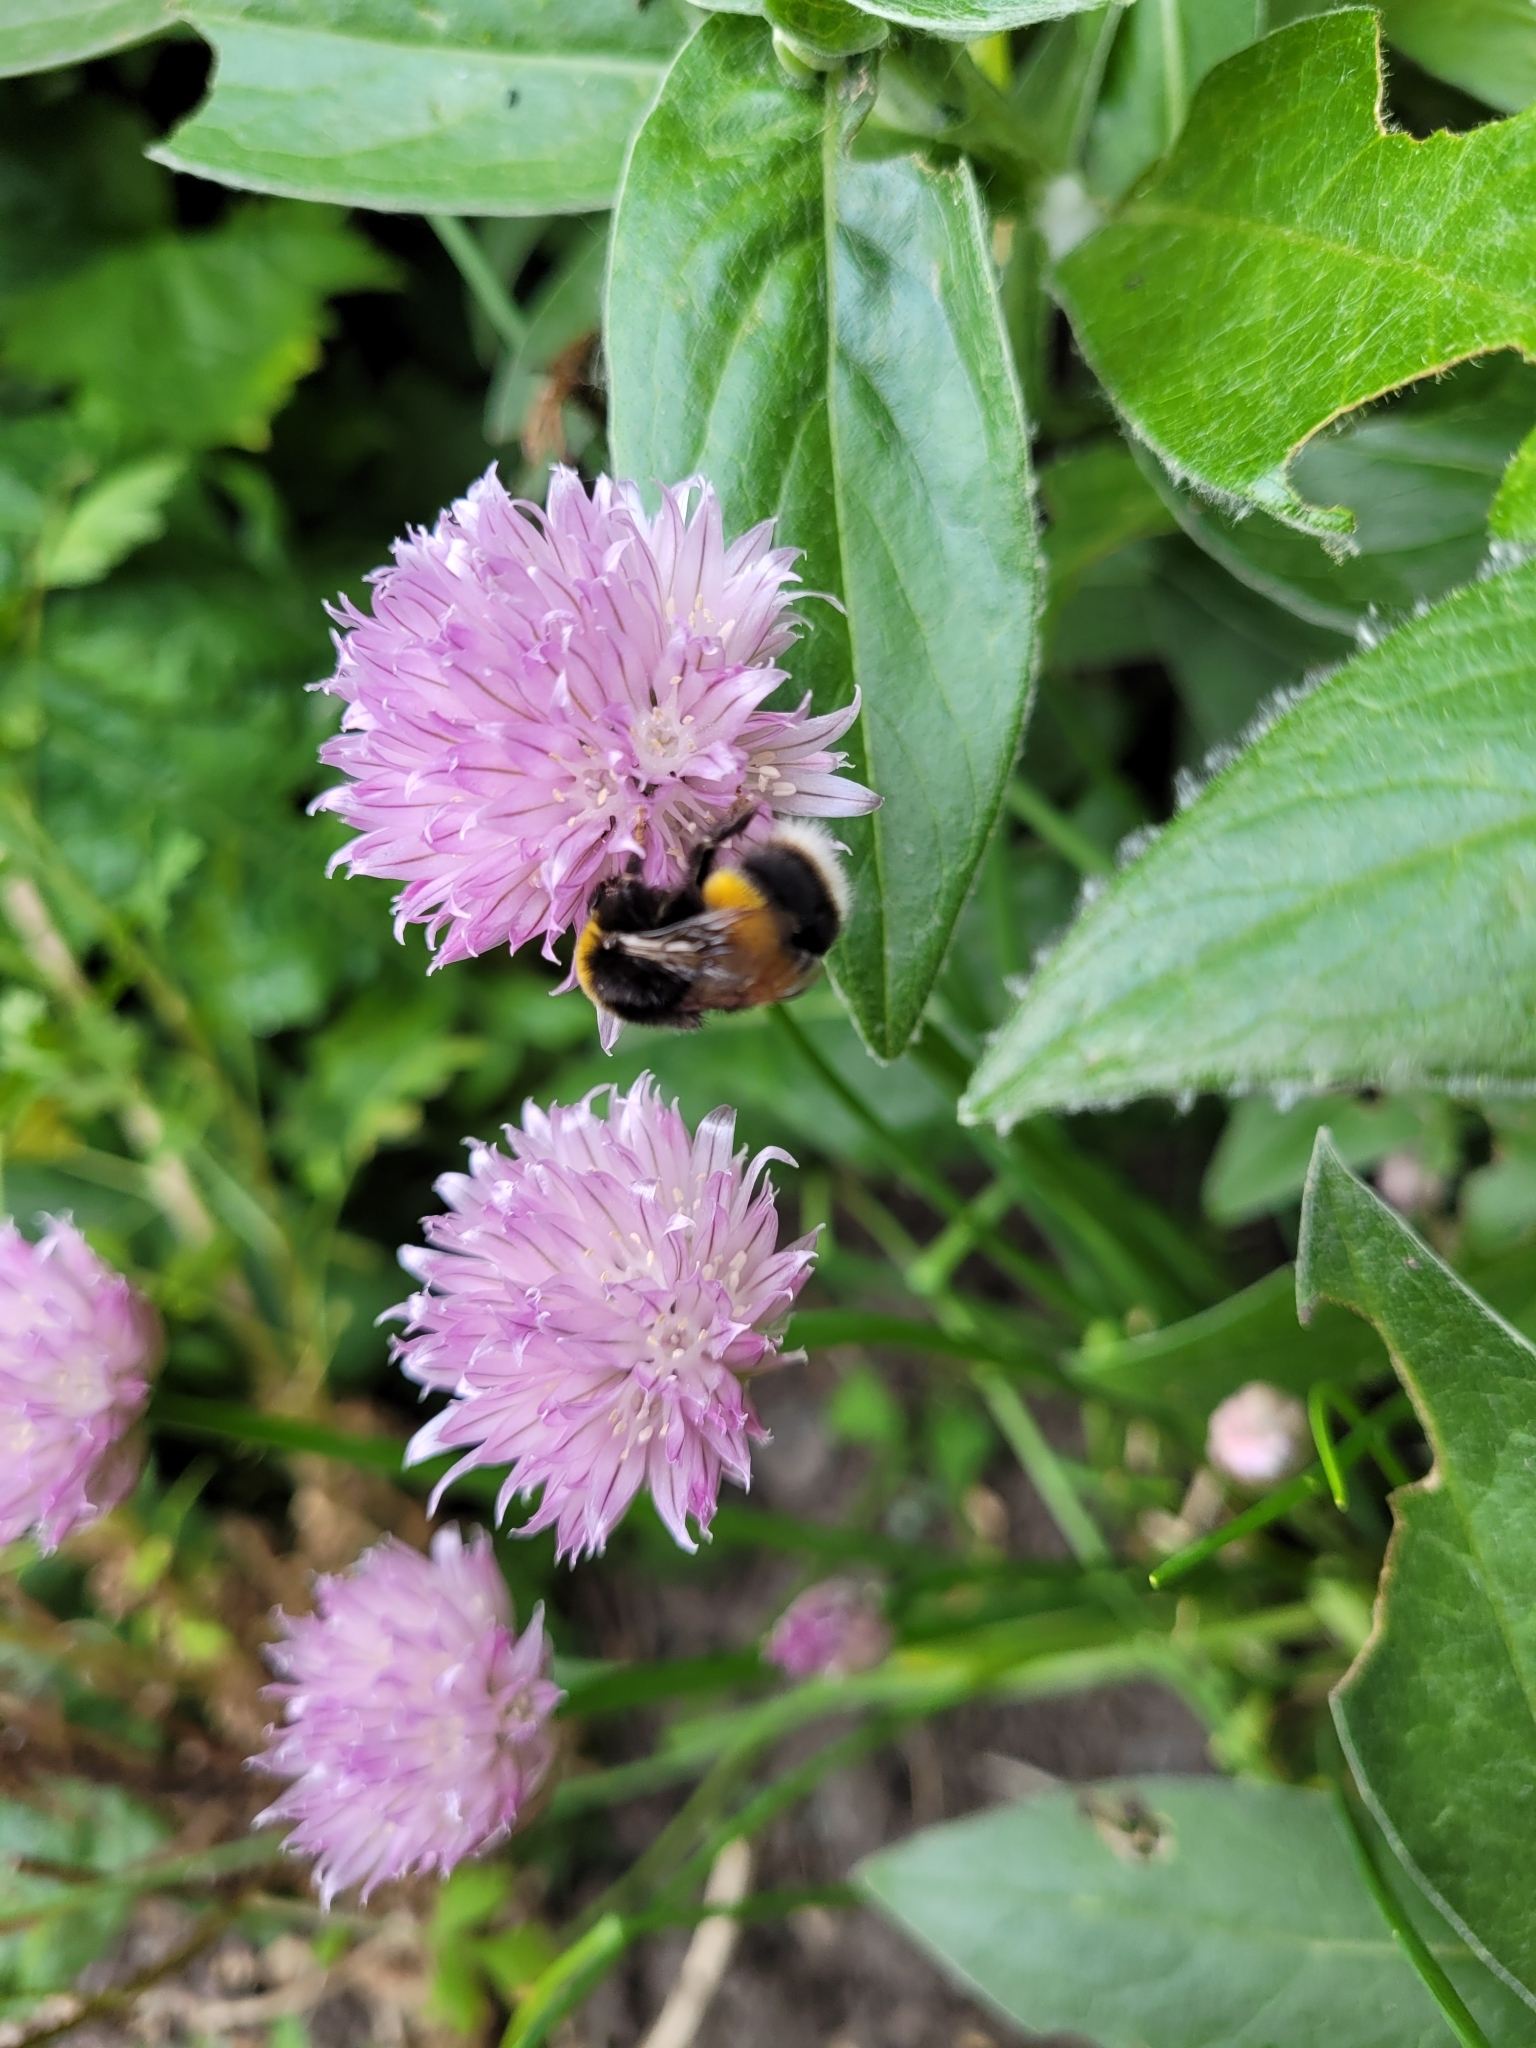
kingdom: Animalia
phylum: Arthropoda
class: Insecta
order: Hymenoptera
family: Apidae
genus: Bombus
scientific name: Bombus terrestris
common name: Buff-tailed bumblebee
